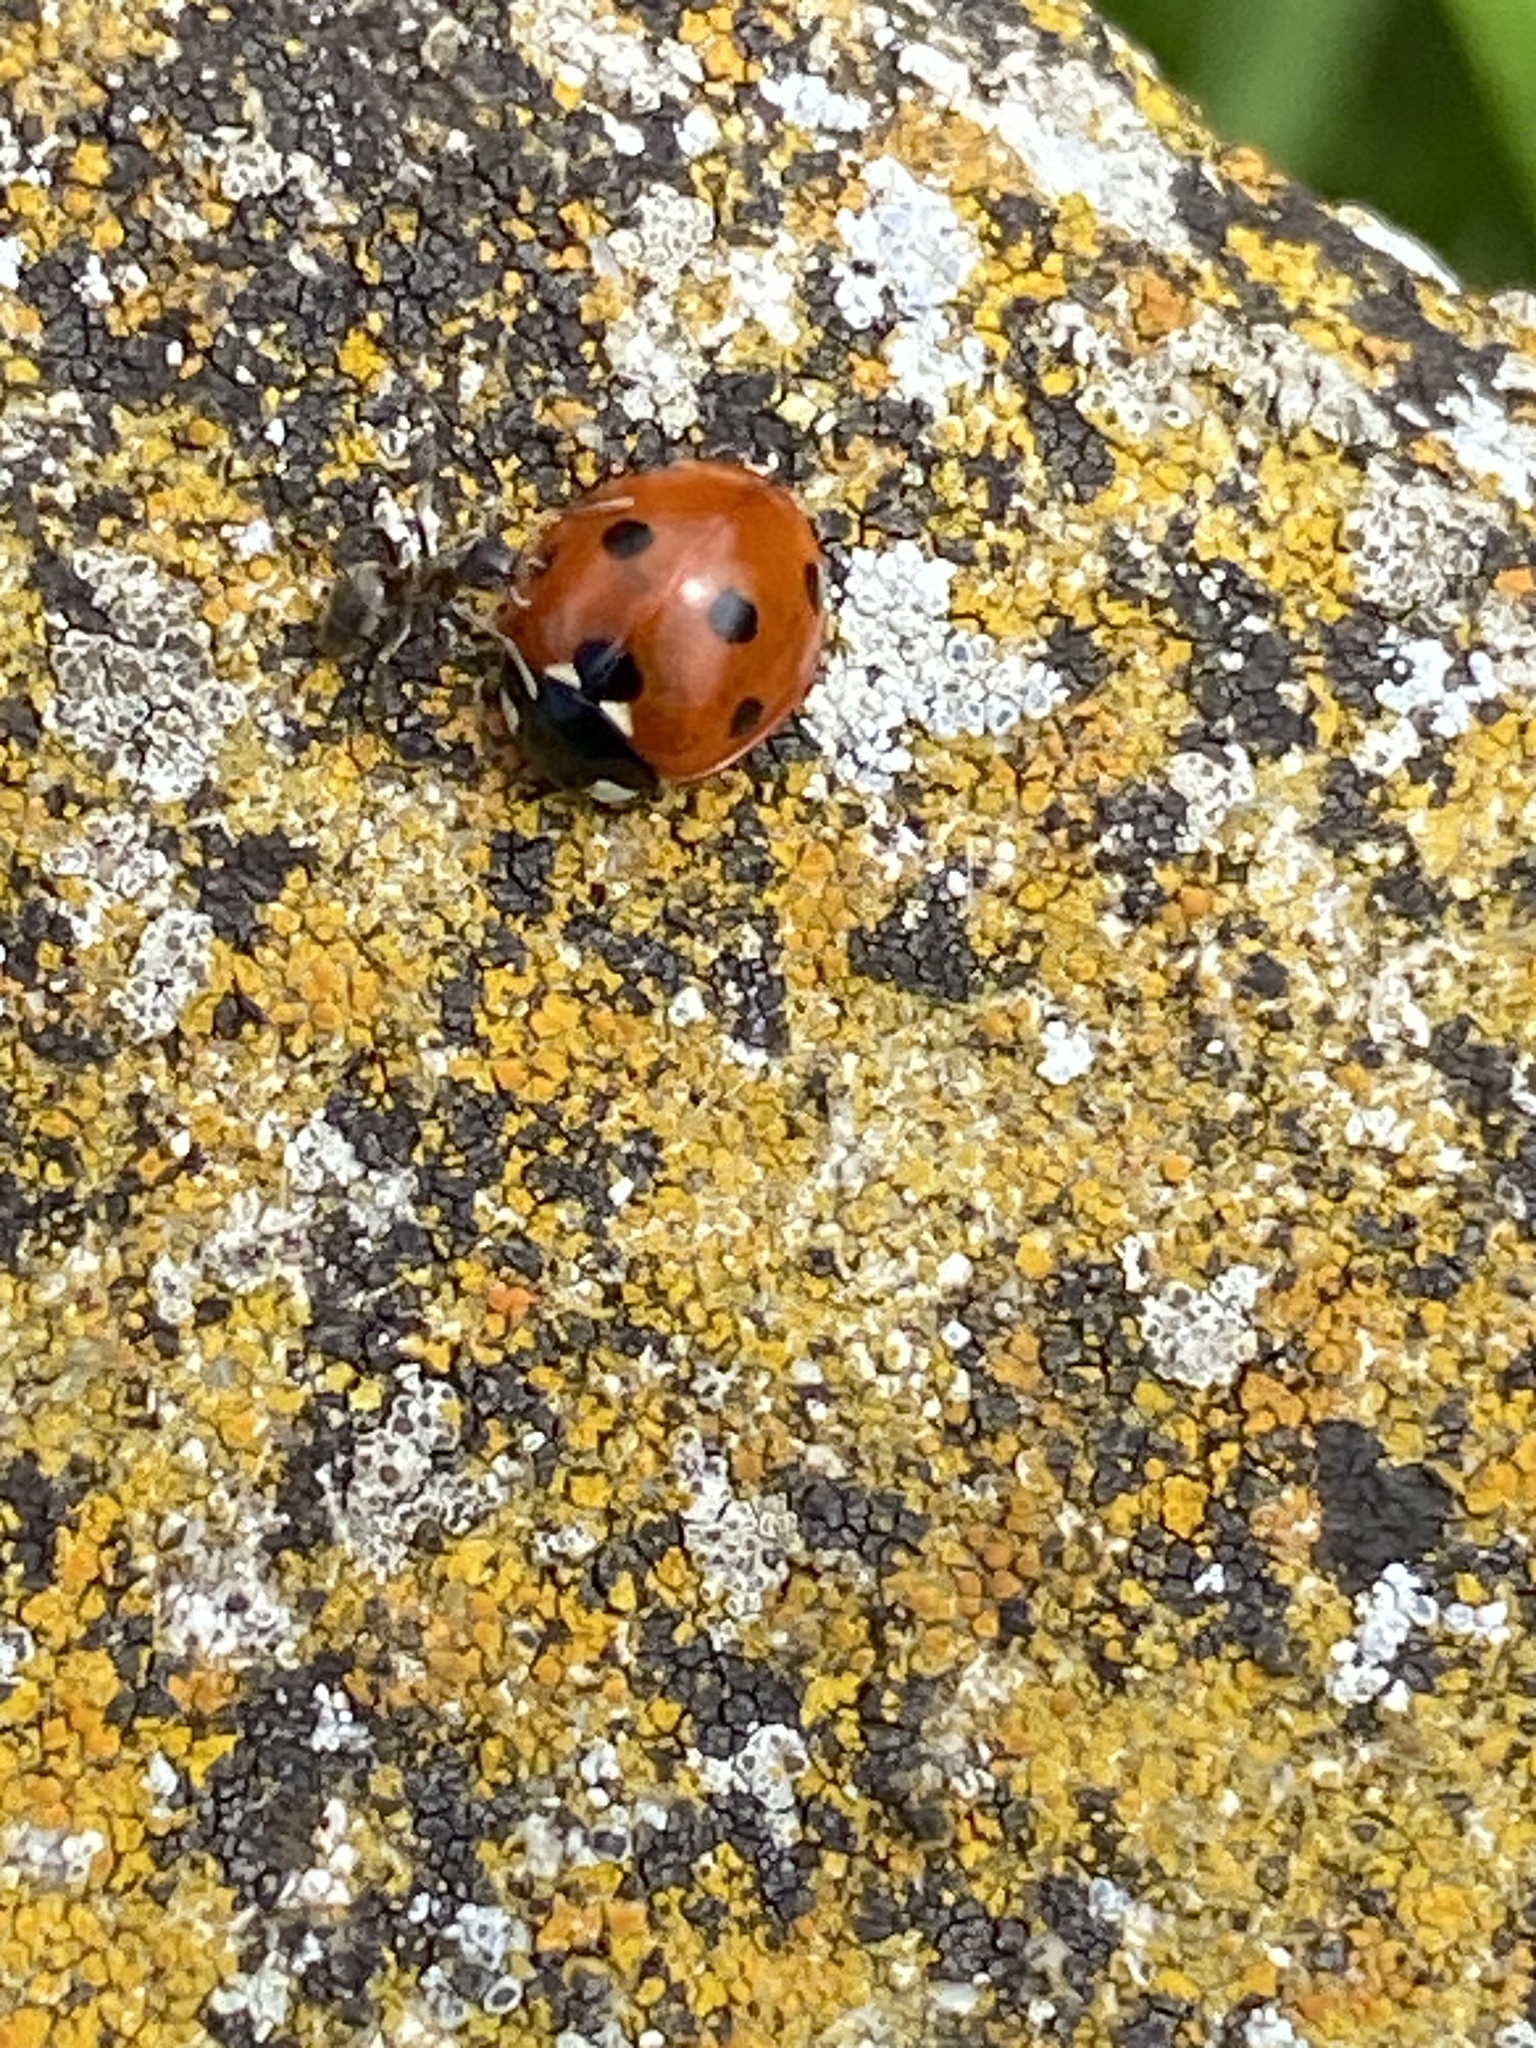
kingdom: Animalia
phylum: Arthropoda
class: Insecta
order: Coleoptera
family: Coccinellidae
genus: Coccinella
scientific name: Coccinella septempunctata
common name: Sevenspotted lady beetle
